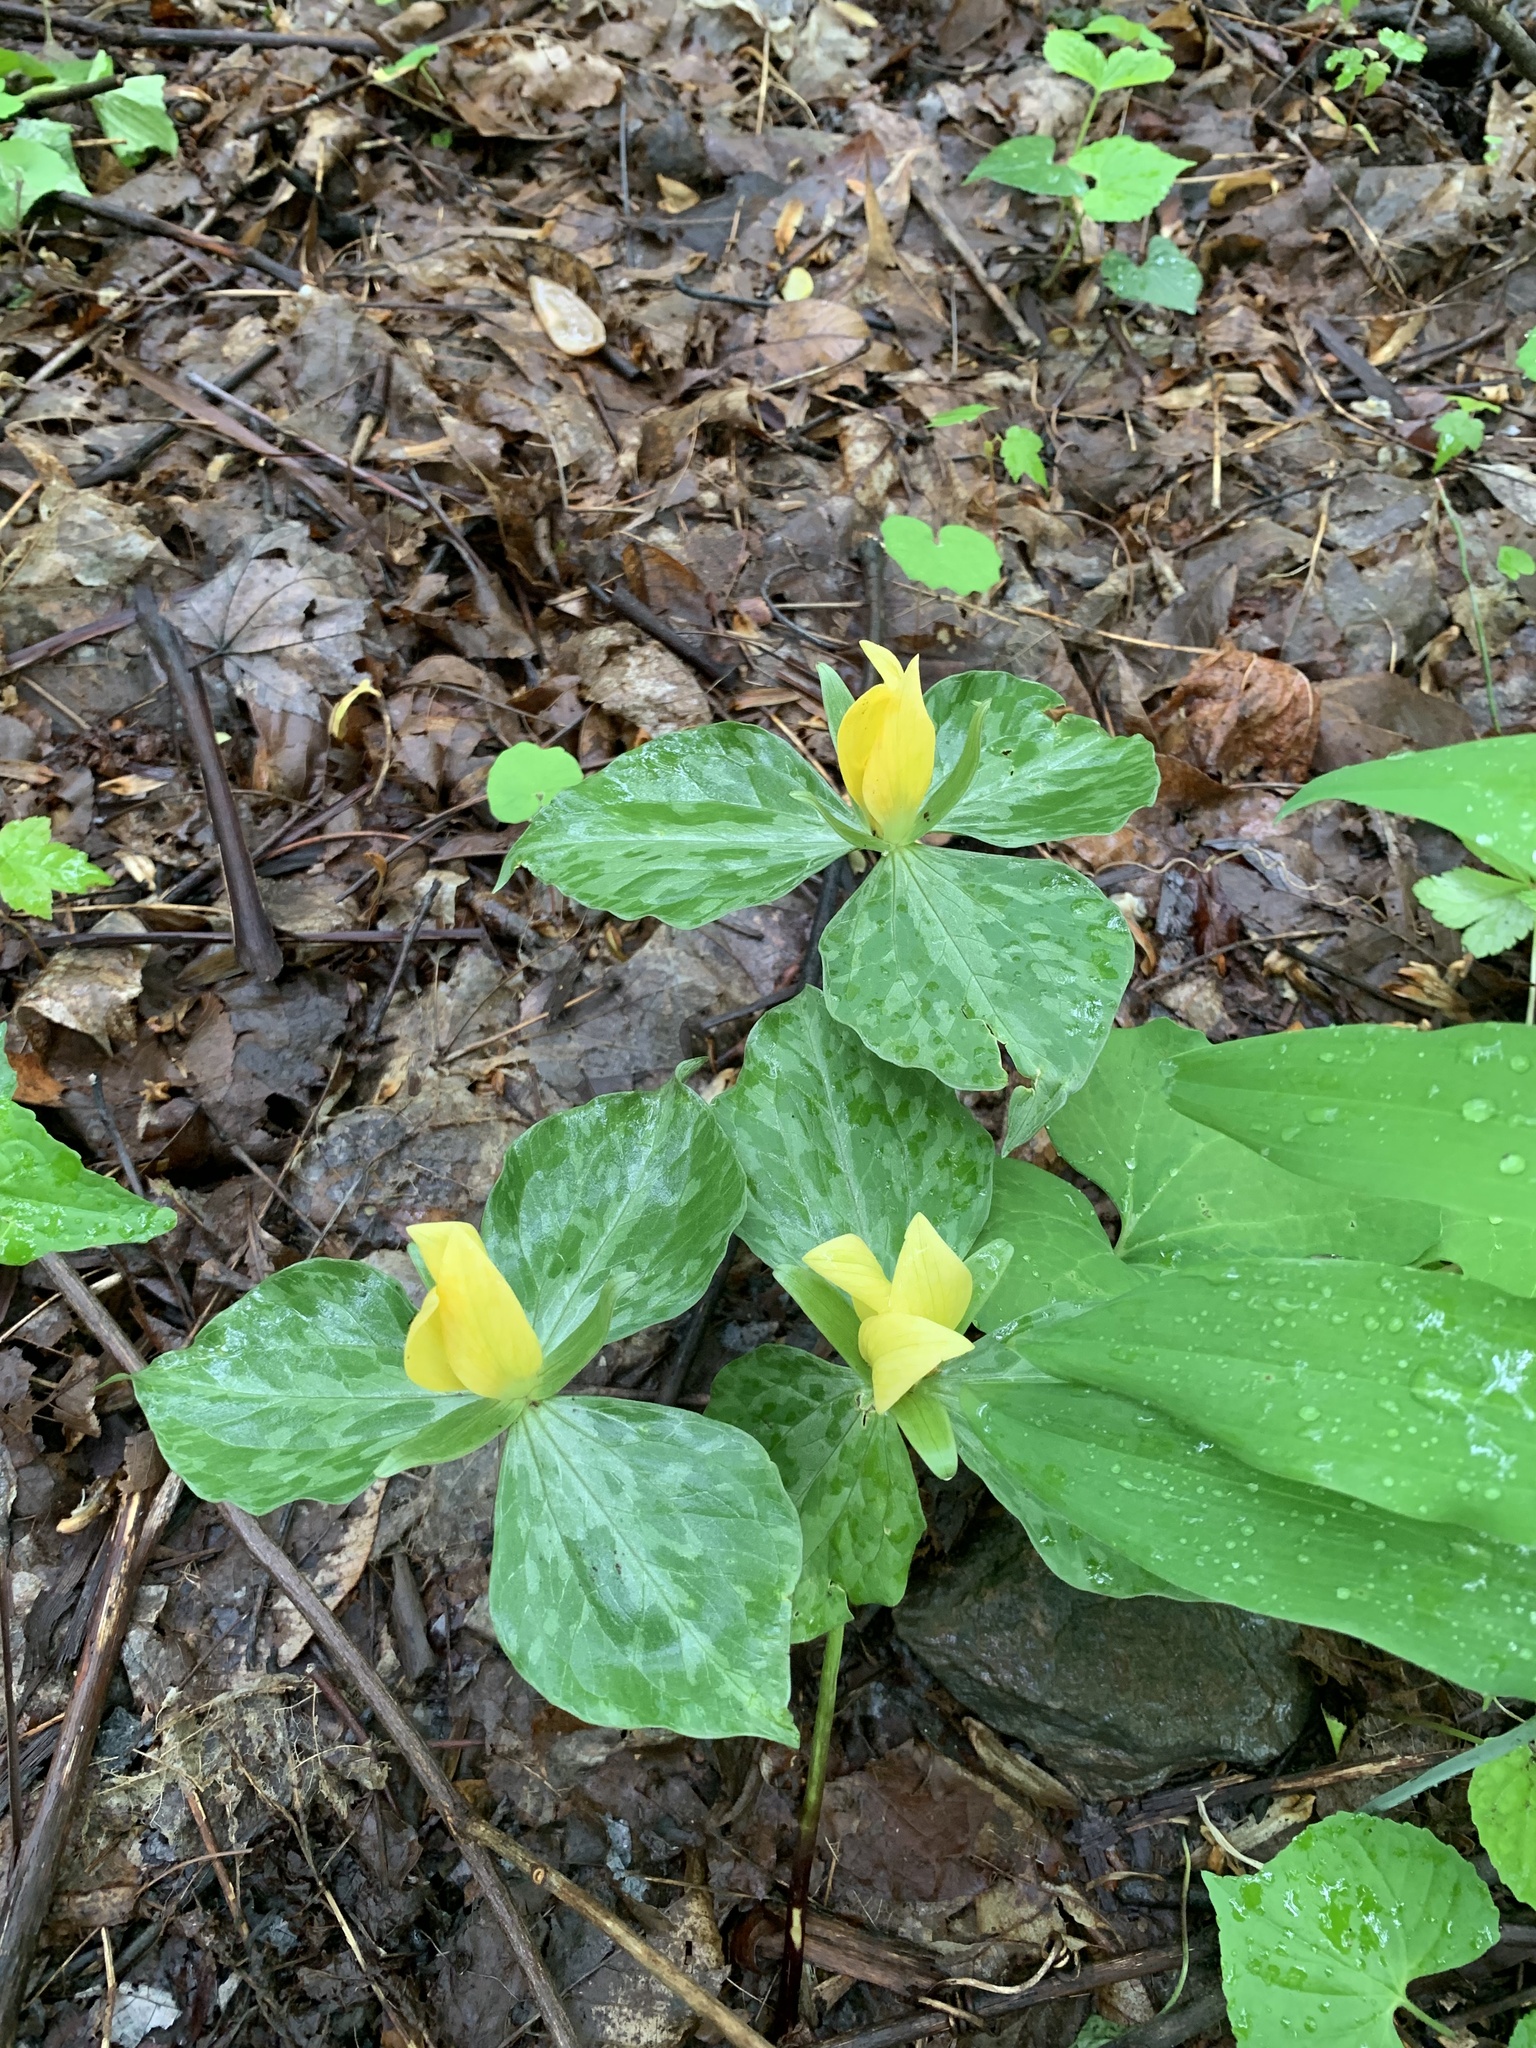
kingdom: Plantae
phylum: Tracheophyta
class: Liliopsida
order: Liliales
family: Melanthiaceae
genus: Trillium
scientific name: Trillium luteum
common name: Wax trillium
